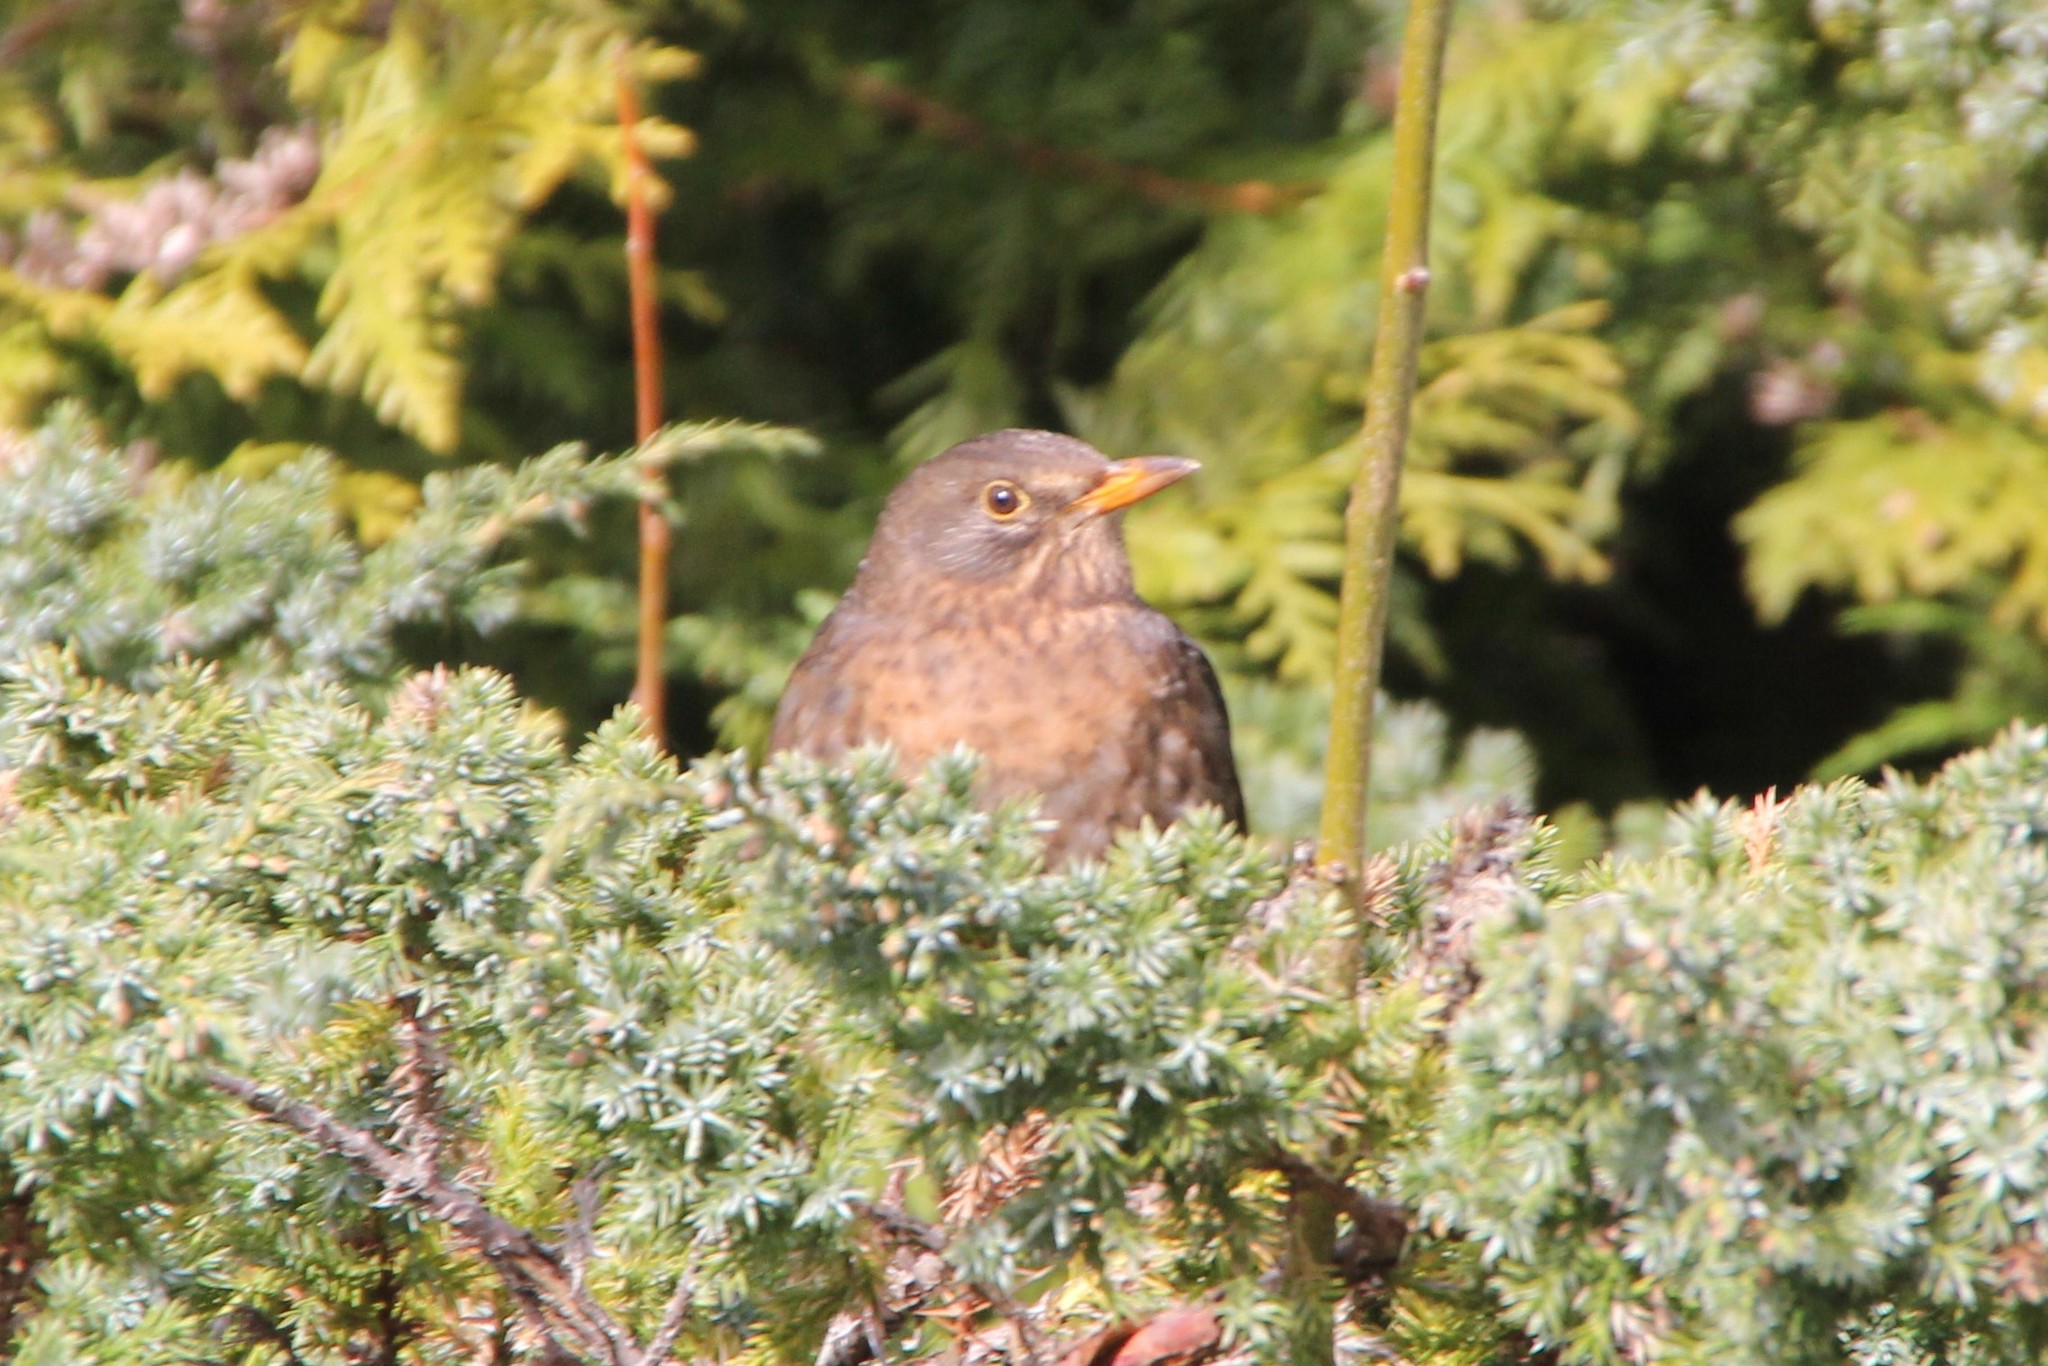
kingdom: Animalia
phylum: Chordata
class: Aves
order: Passeriformes
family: Turdidae
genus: Turdus
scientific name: Turdus merula
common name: Common blackbird
